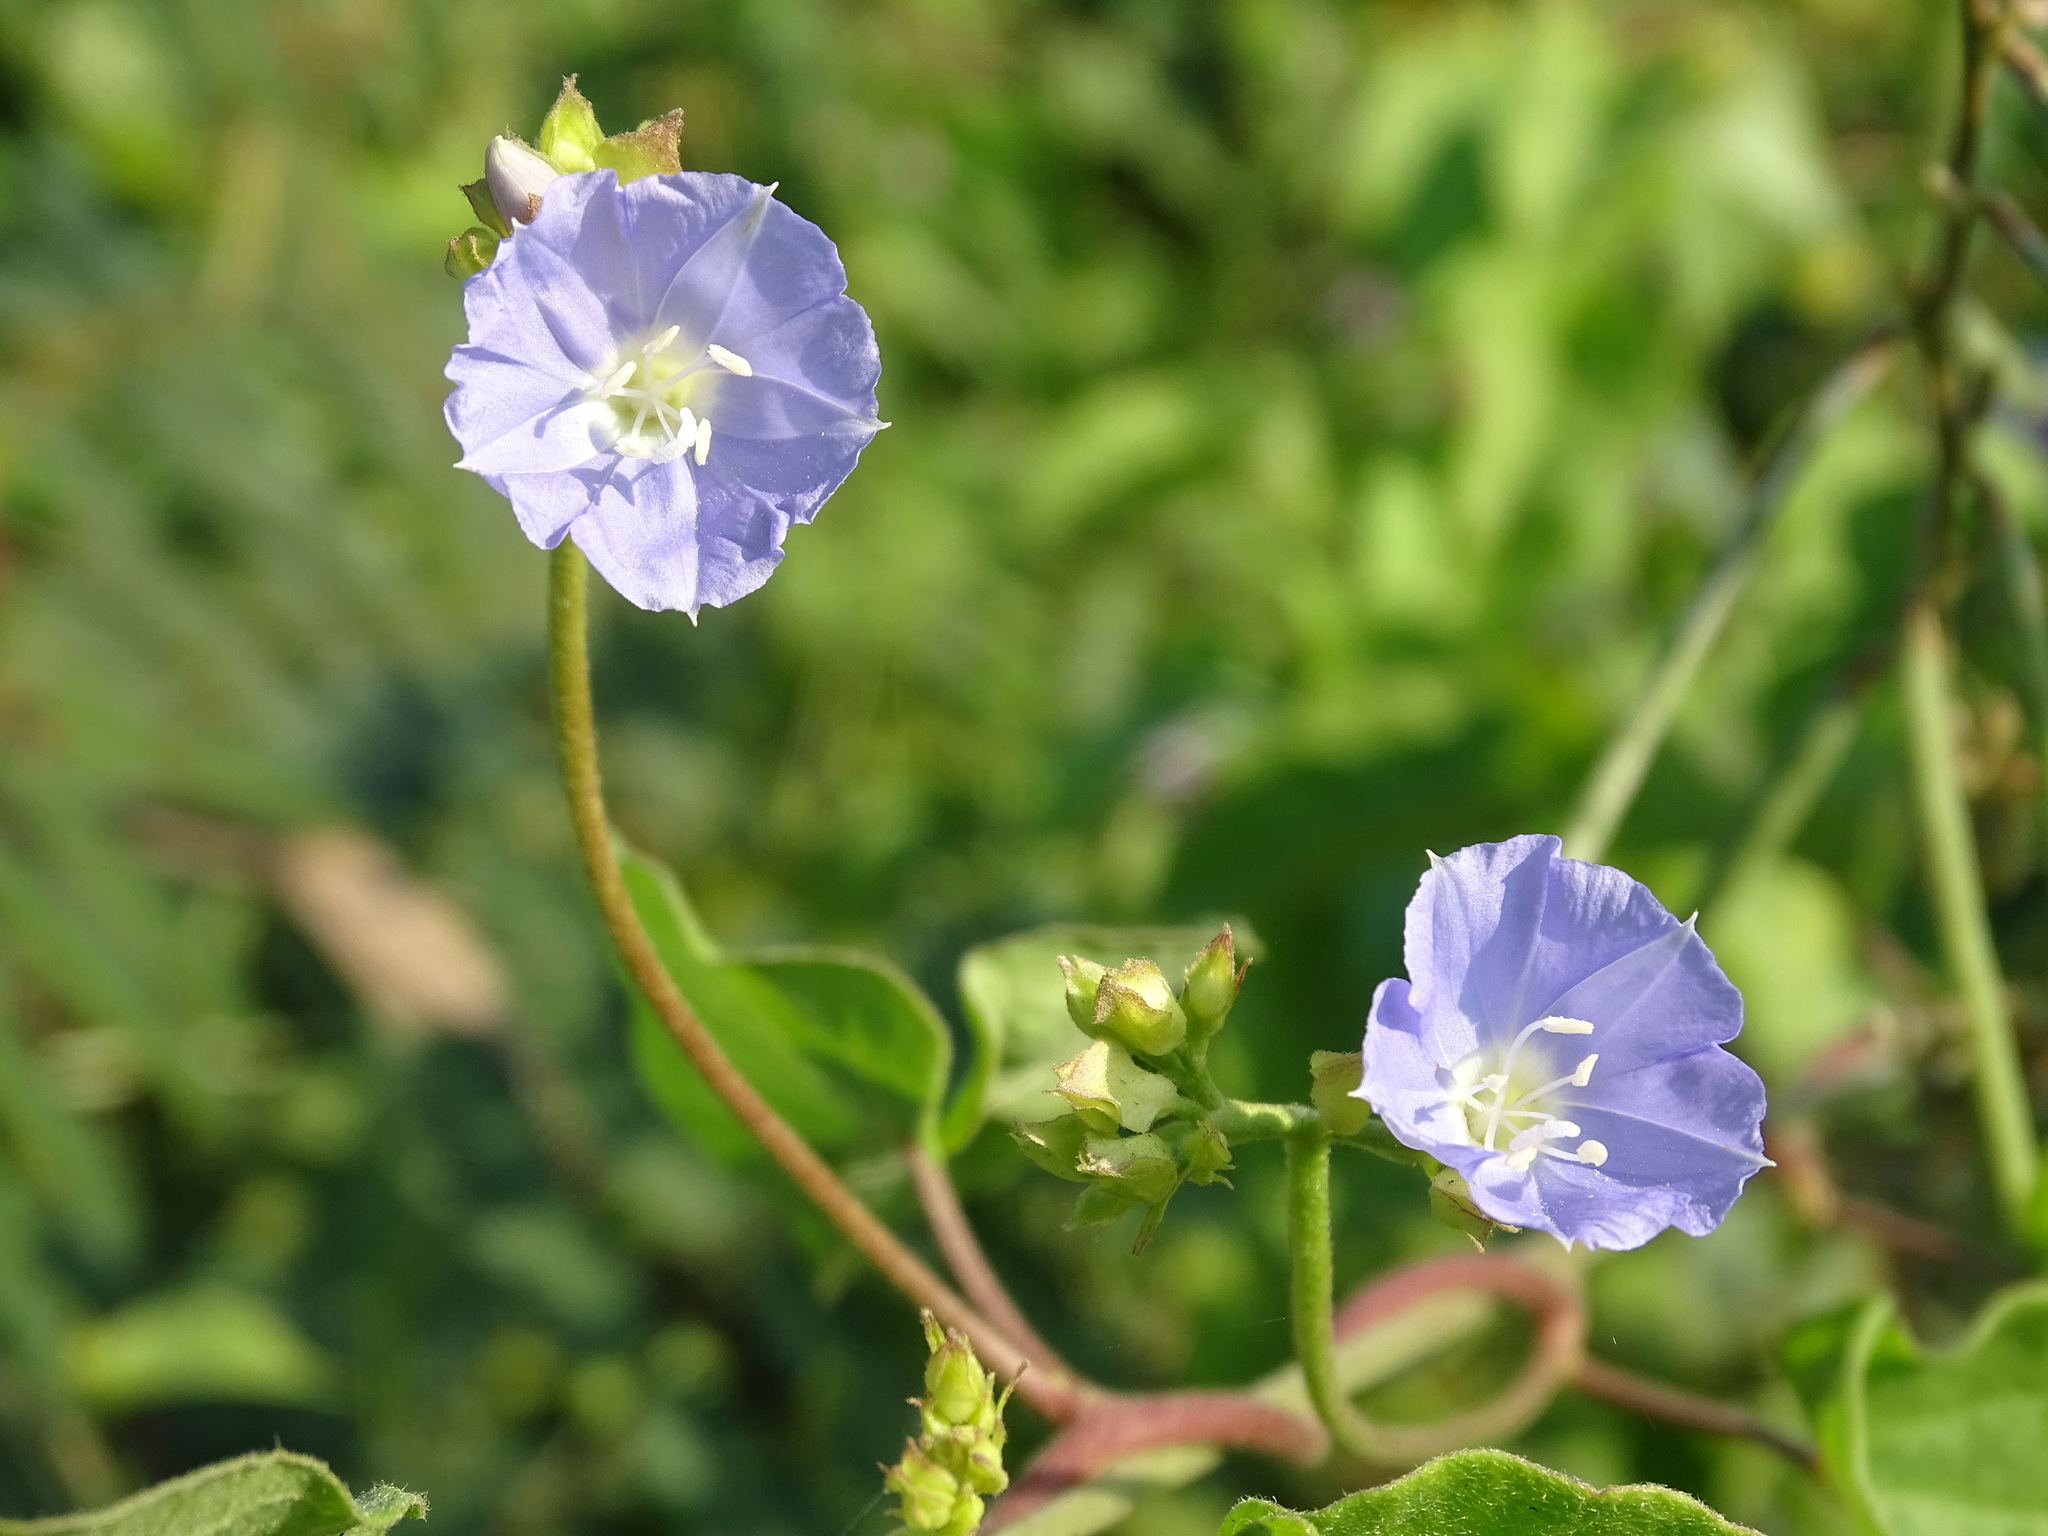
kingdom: Plantae
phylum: Tracheophyta
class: Magnoliopsida
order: Solanales
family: Convolvulaceae
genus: Jacquemontia
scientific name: Jacquemontia oaxacana
